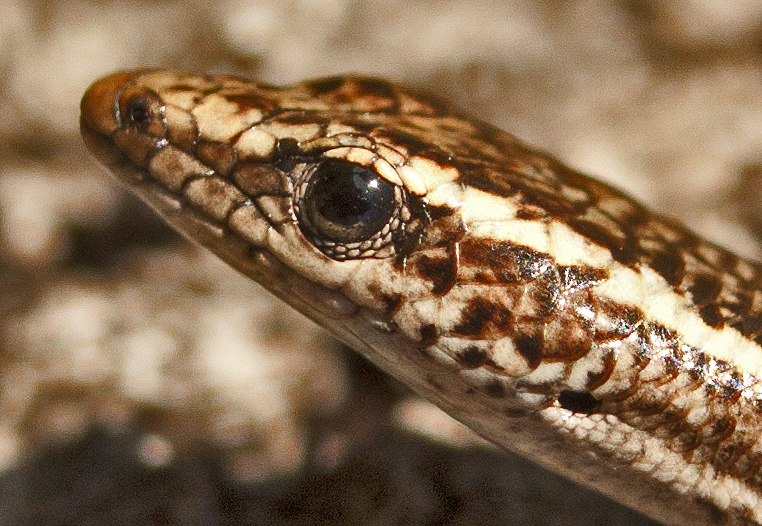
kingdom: Animalia
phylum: Chordata
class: Squamata
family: Scincidae
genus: Cryptoblepharus
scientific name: Cryptoblepharus pulcher
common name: Elegant snake-eyed skink
